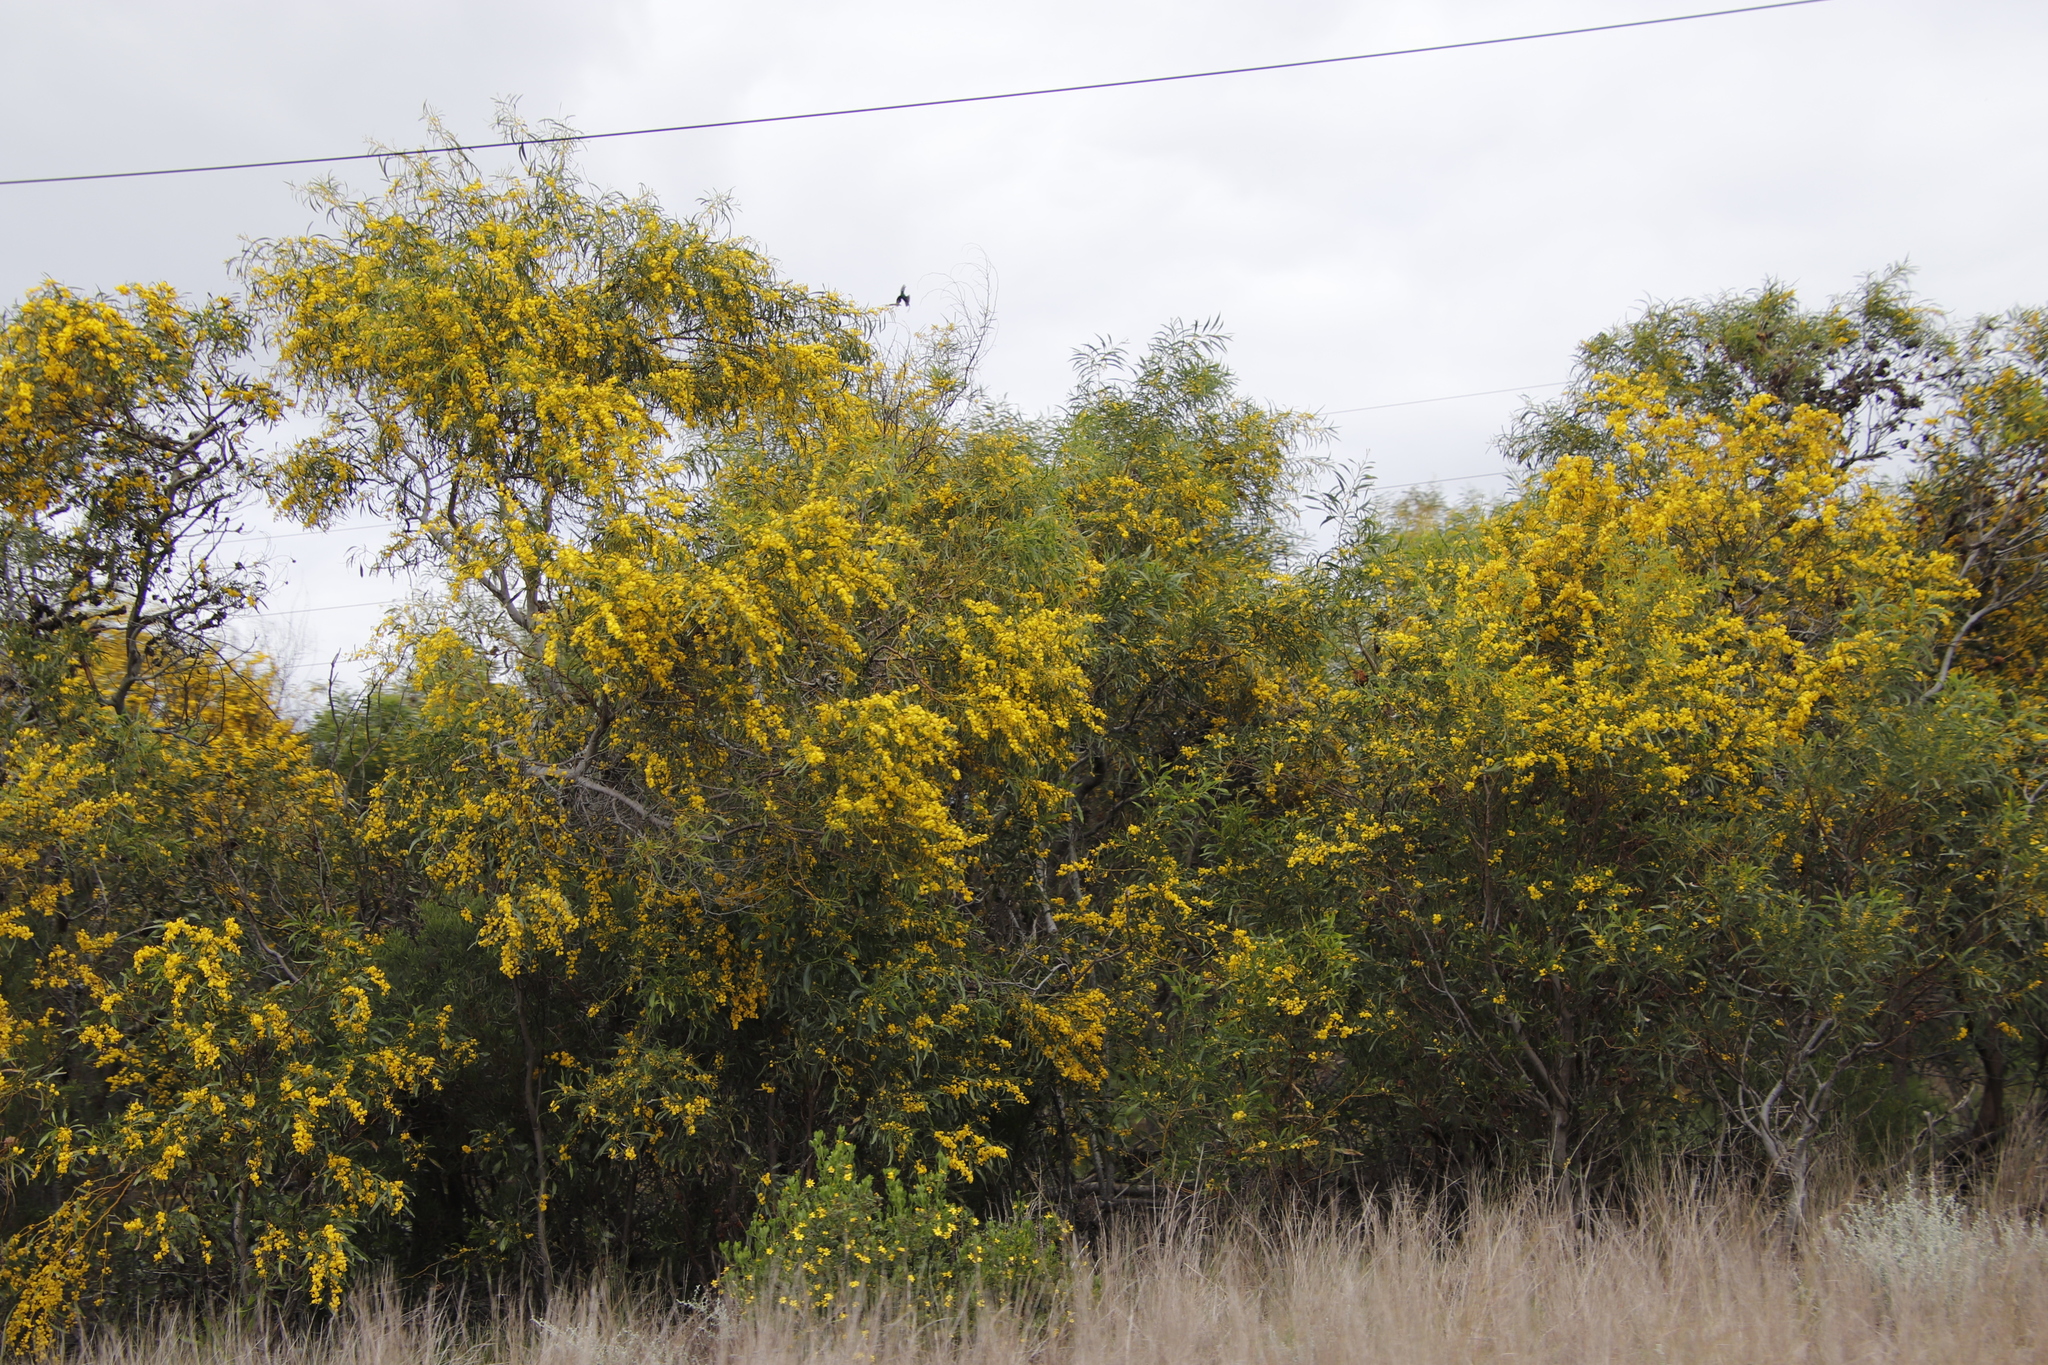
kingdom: Plantae
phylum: Tracheophyta
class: Magnoliopsida
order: Fabales
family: Fabaceae
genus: Acacia
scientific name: Acacia saligna
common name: Orange wattle
